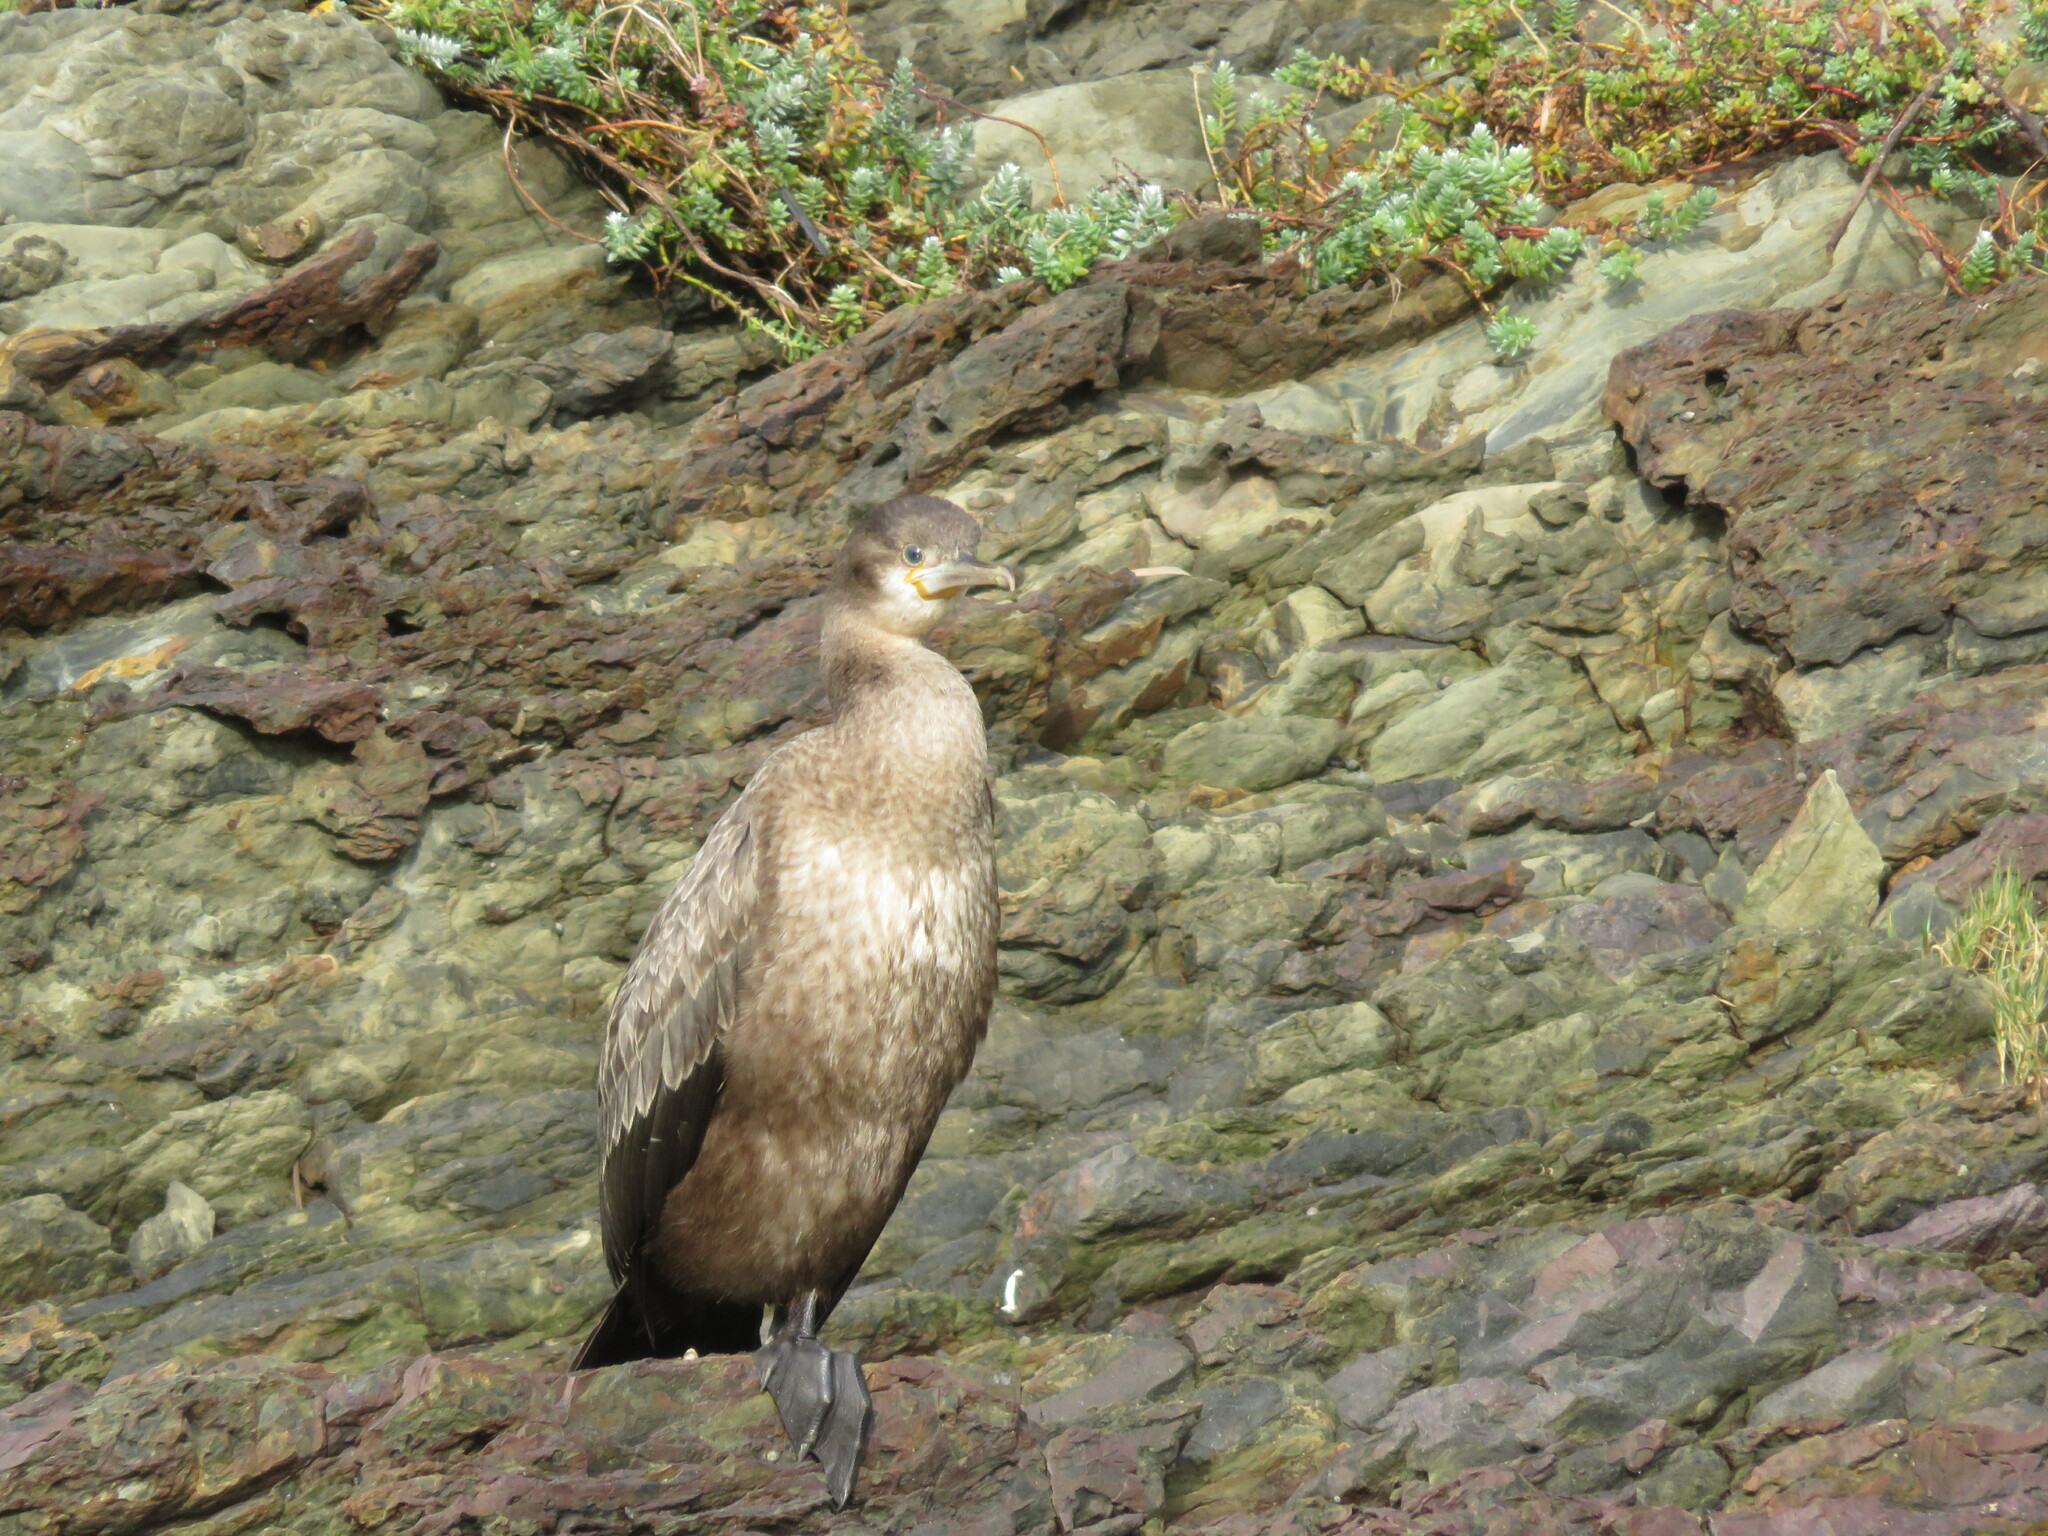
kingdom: Animalia
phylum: Chordata
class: Aves
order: Suliformes
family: Phalacrocoracidae
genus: Phalacrocorax
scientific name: Phalacrocorax capensis
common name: Cape cormorant
